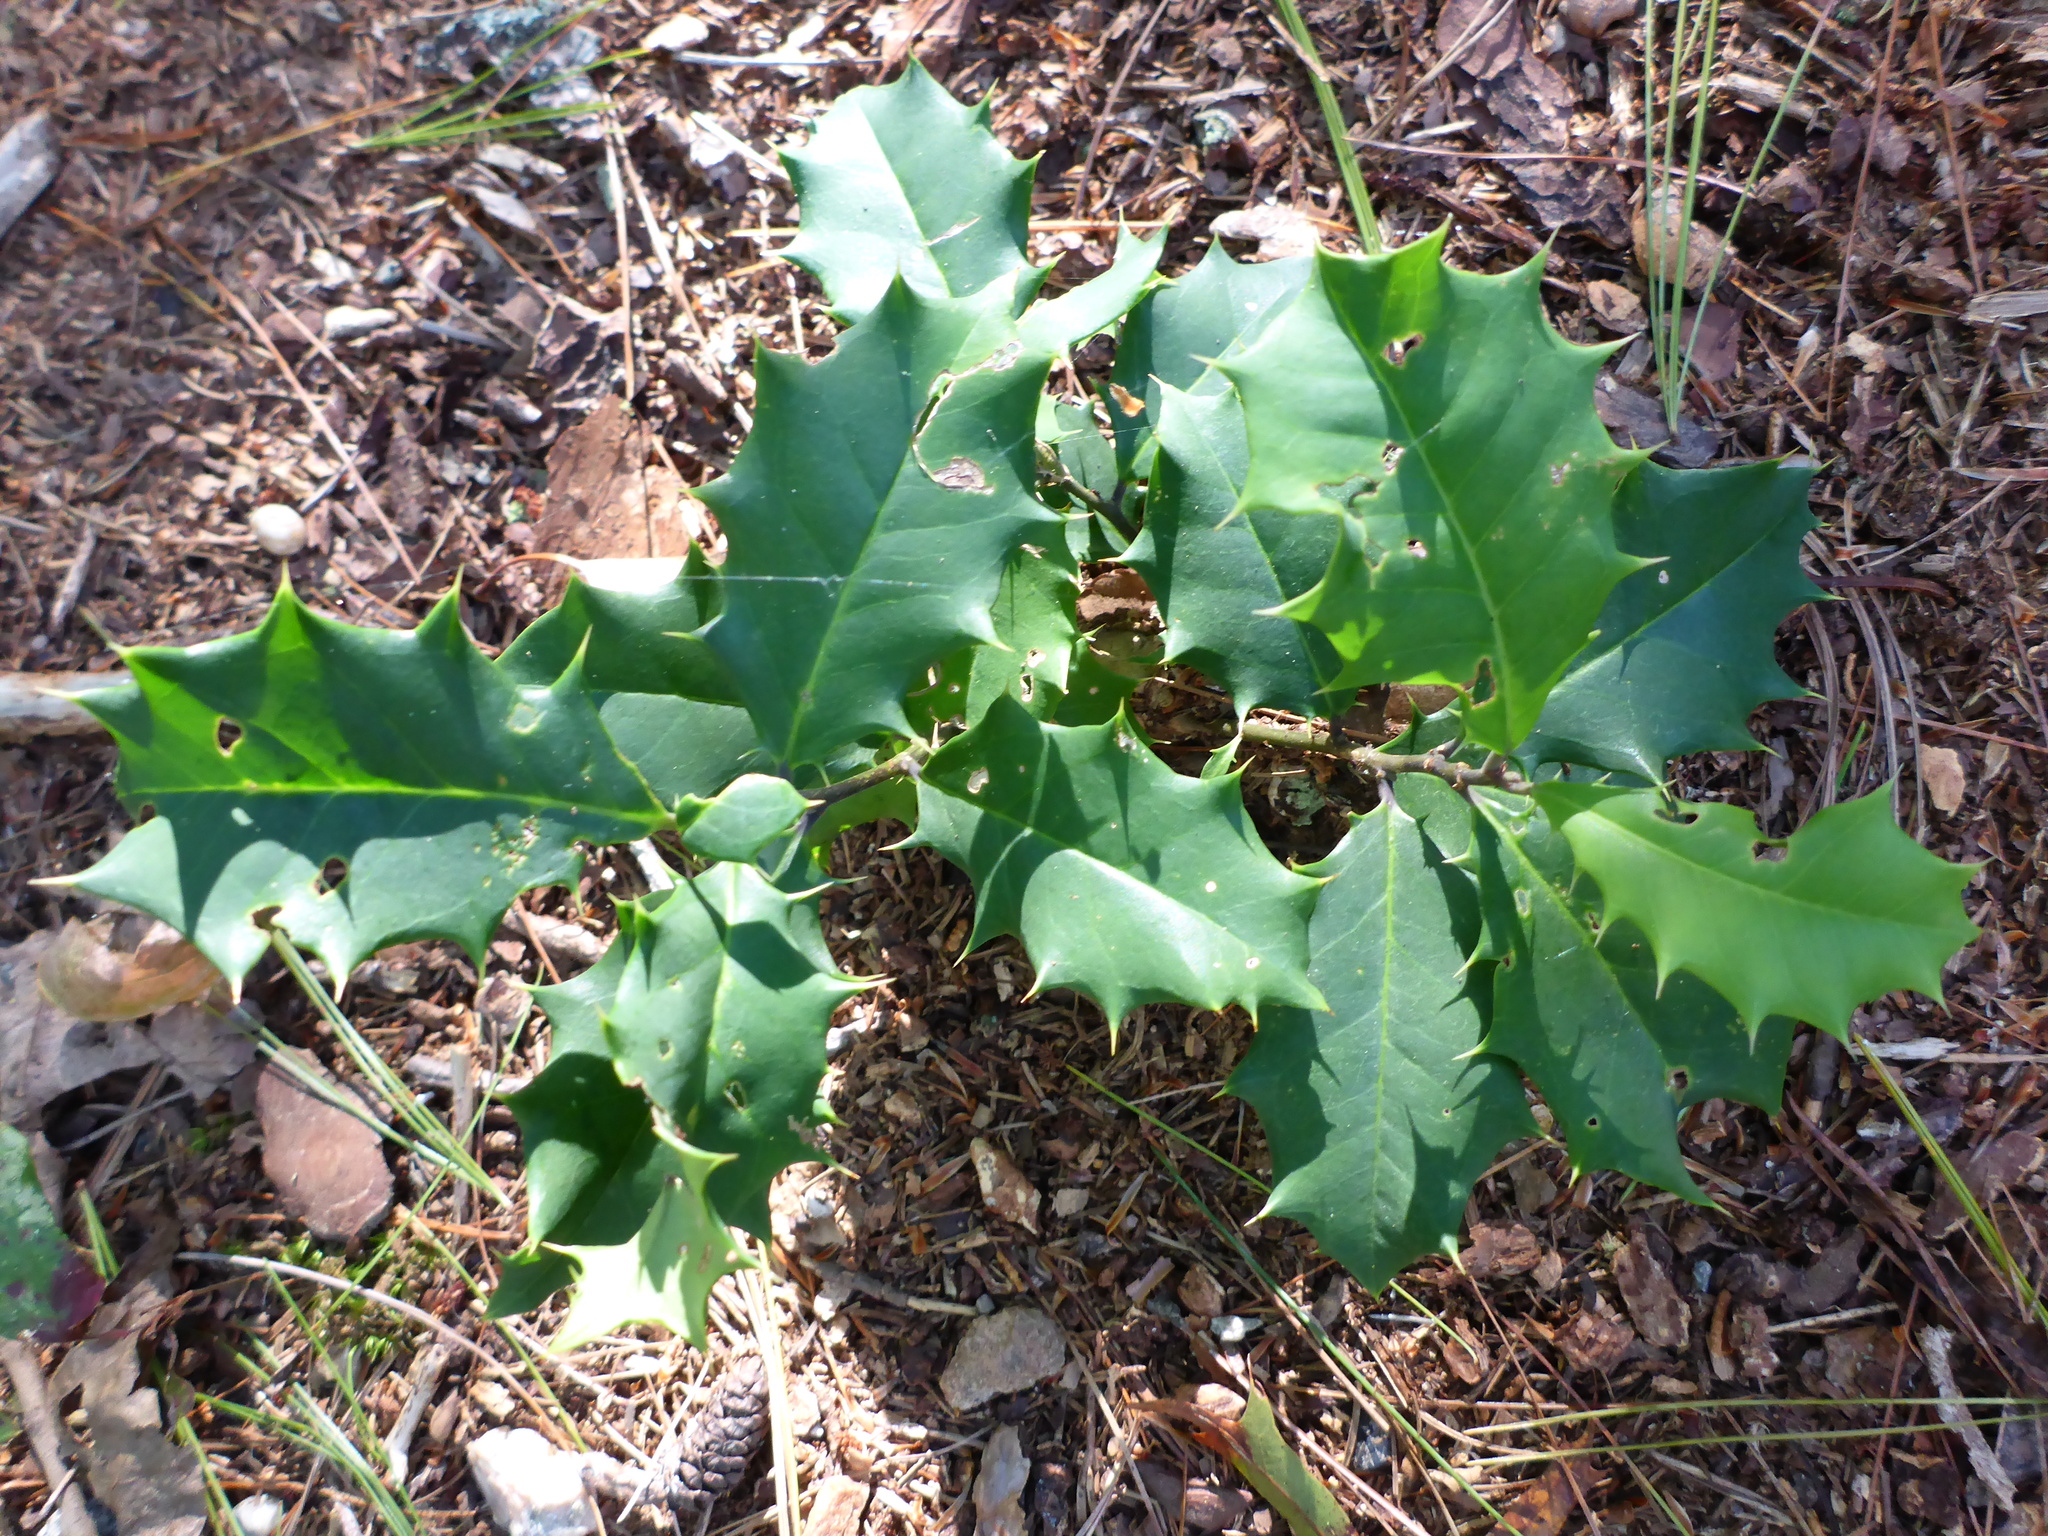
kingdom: Plantae
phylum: Tracheophyta
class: Magnoliopsida
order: Aquifoliales
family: Aquifoliaceae
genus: Ilex
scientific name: Ilex opaca
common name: American holly
